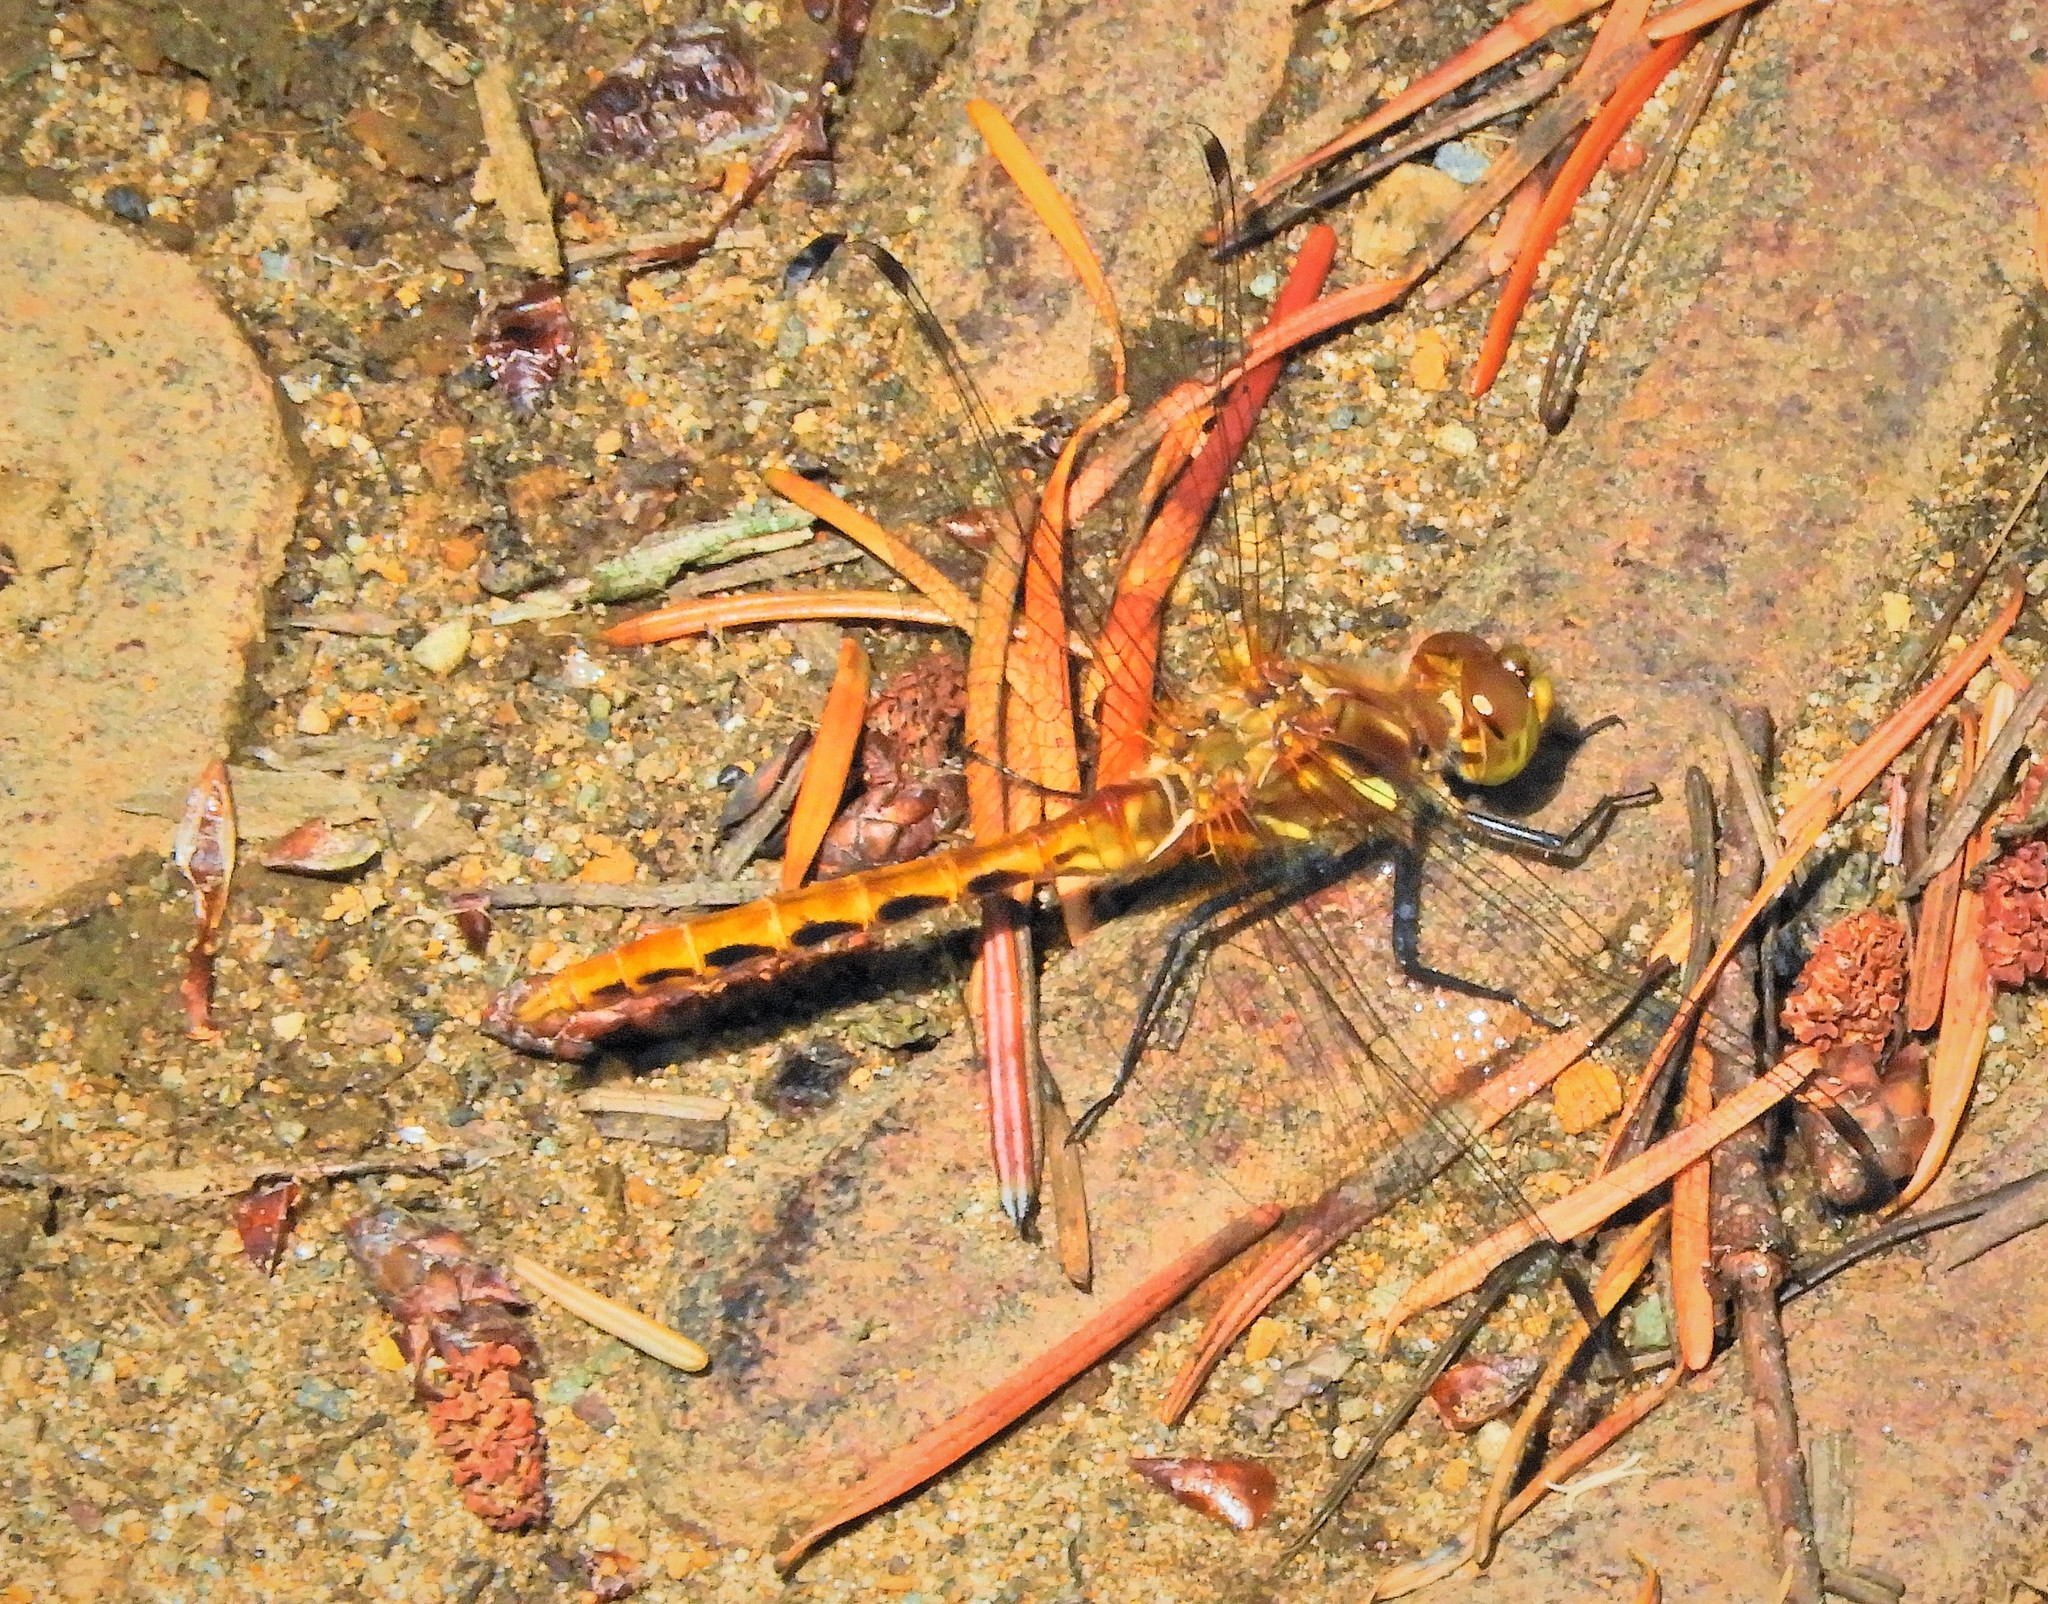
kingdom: Animalia
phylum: Arthropoda
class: Insecta
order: Odonata
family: Libellulidae
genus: Sympetrum
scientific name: Sympetrum pallipes
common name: Striped meadowhawk
